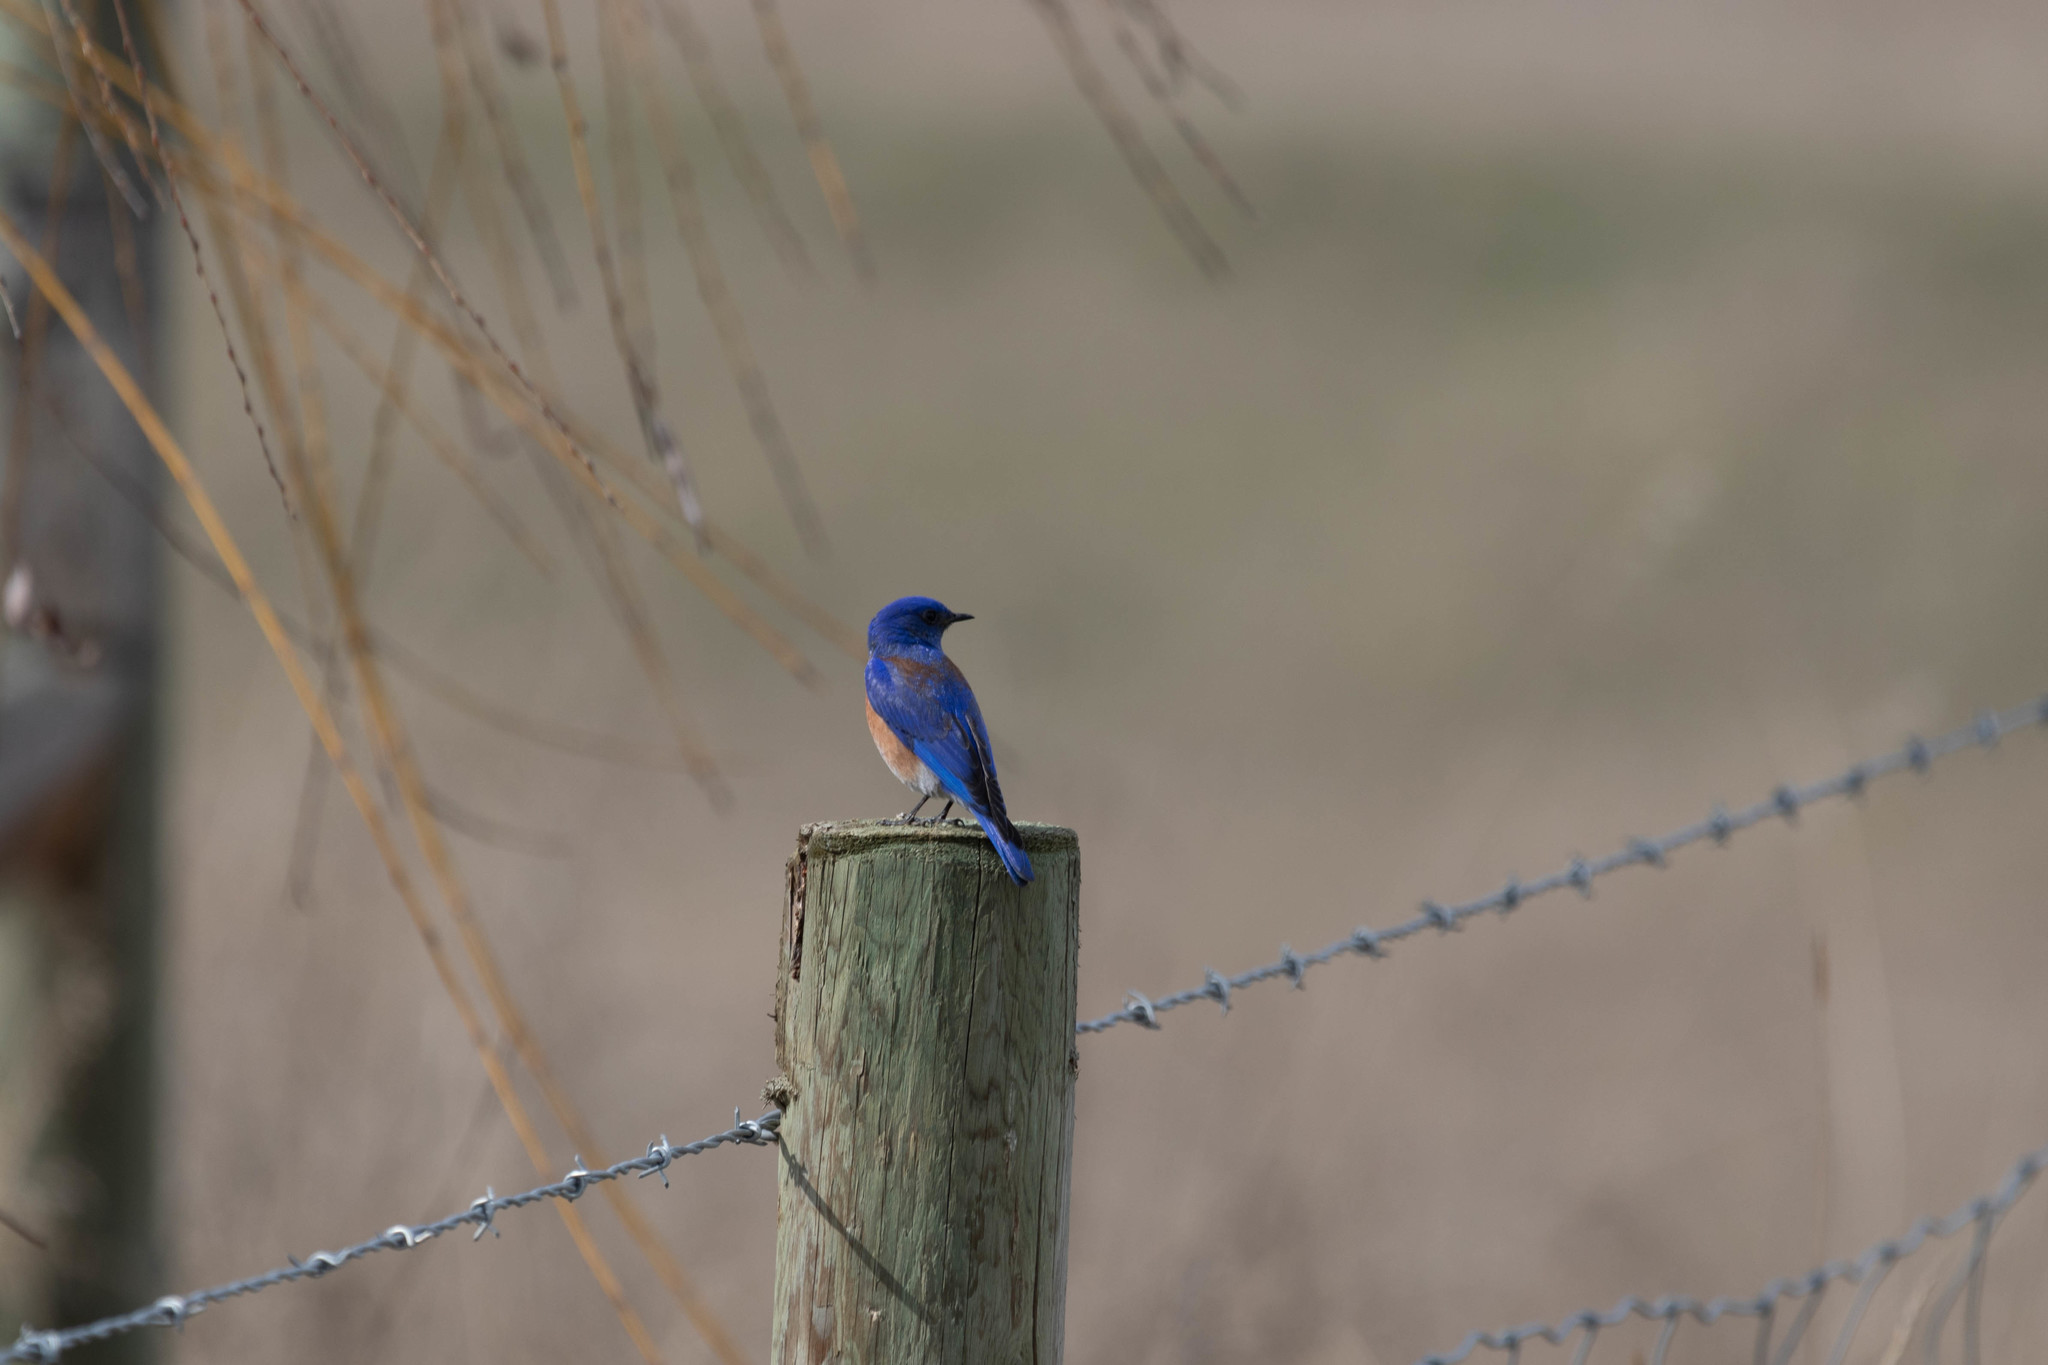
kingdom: Animalia
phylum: Chordata
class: Aves
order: Passeriformes
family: Turdidae
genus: Sialia
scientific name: Sialia mexicana
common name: Western bluebird
